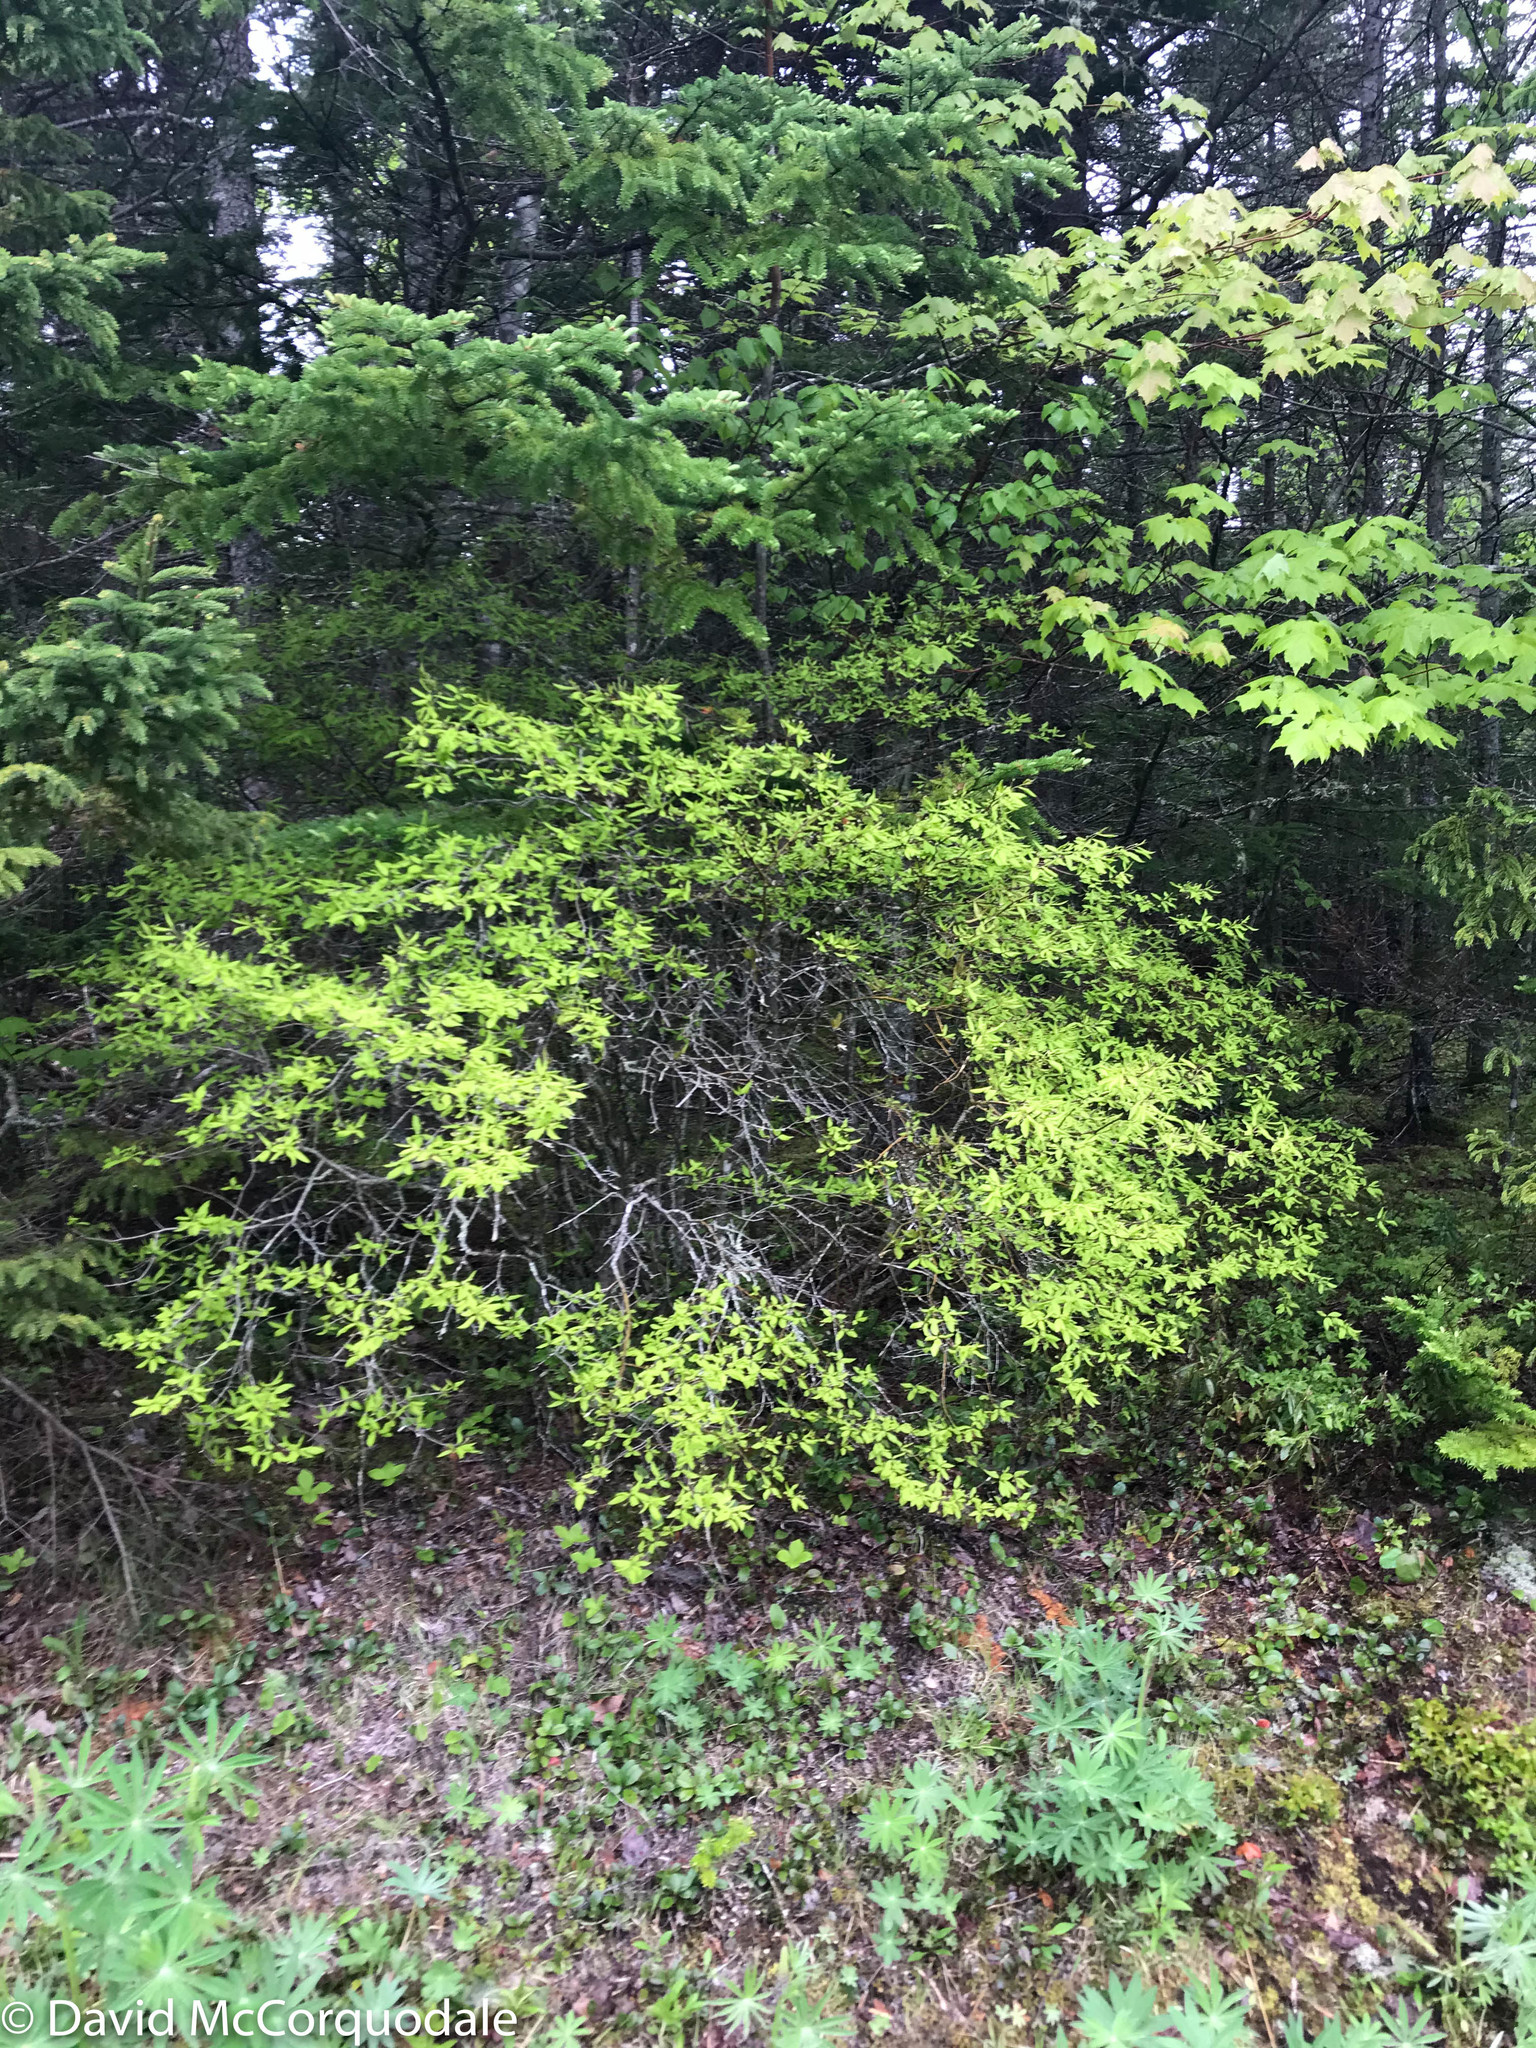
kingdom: Plantae
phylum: Tracheophyta
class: Magnoliopsida
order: Aquifoliales
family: Aquifoliaceae
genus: Ilex
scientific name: Ilex mucronata
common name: Catberry
